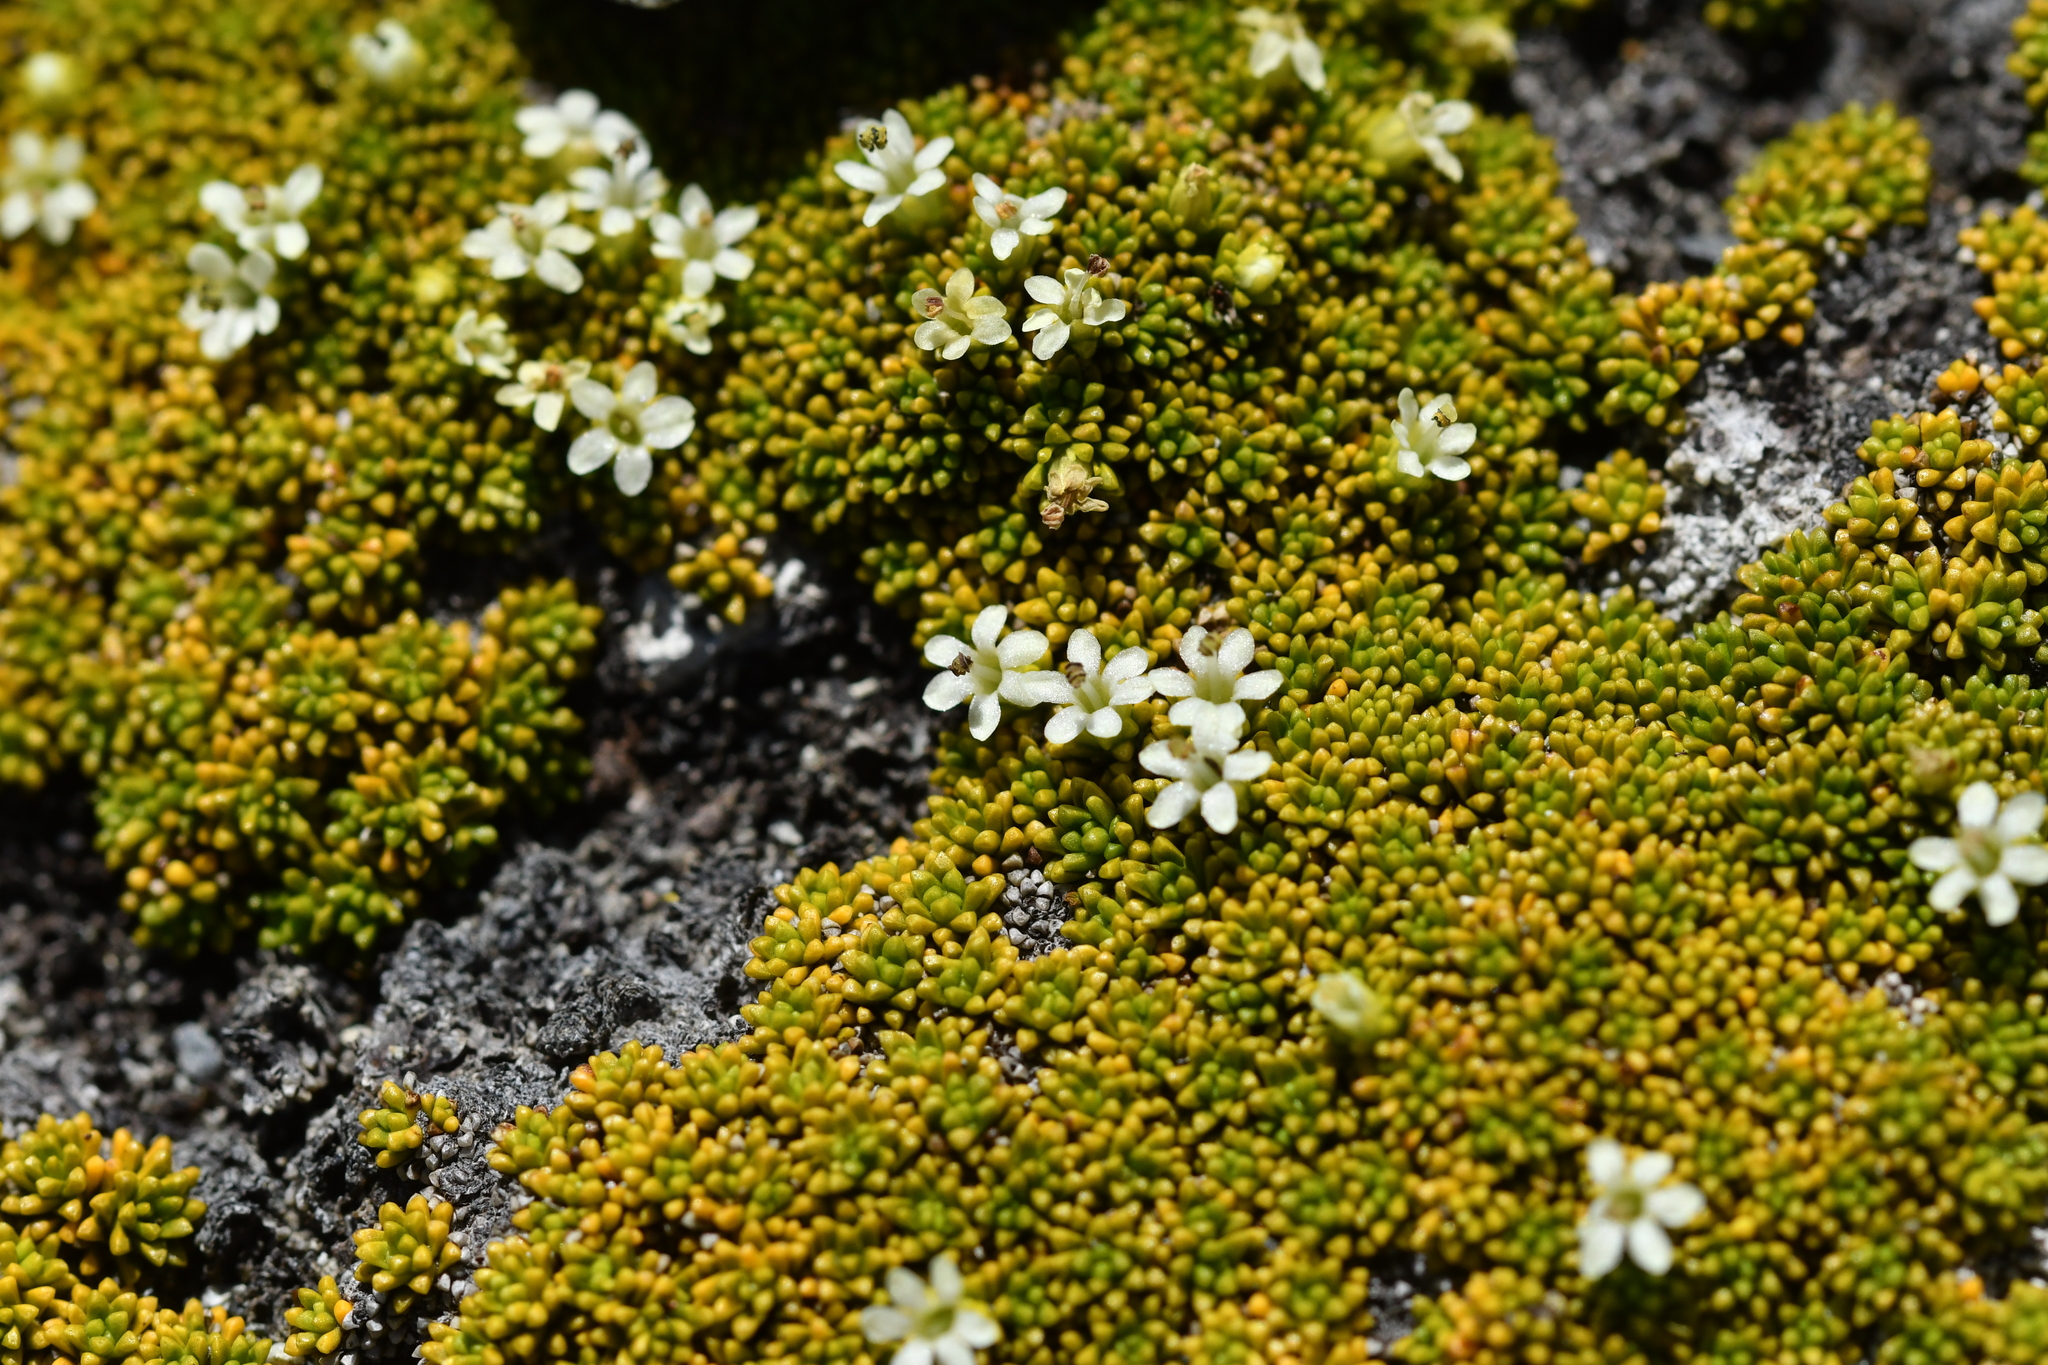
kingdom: Plantae
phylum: Tracheophyta
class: Magnoliopsida
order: Asterales
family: Stylidiaceae
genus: Phyllachne
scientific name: Phyllachne colensoi
